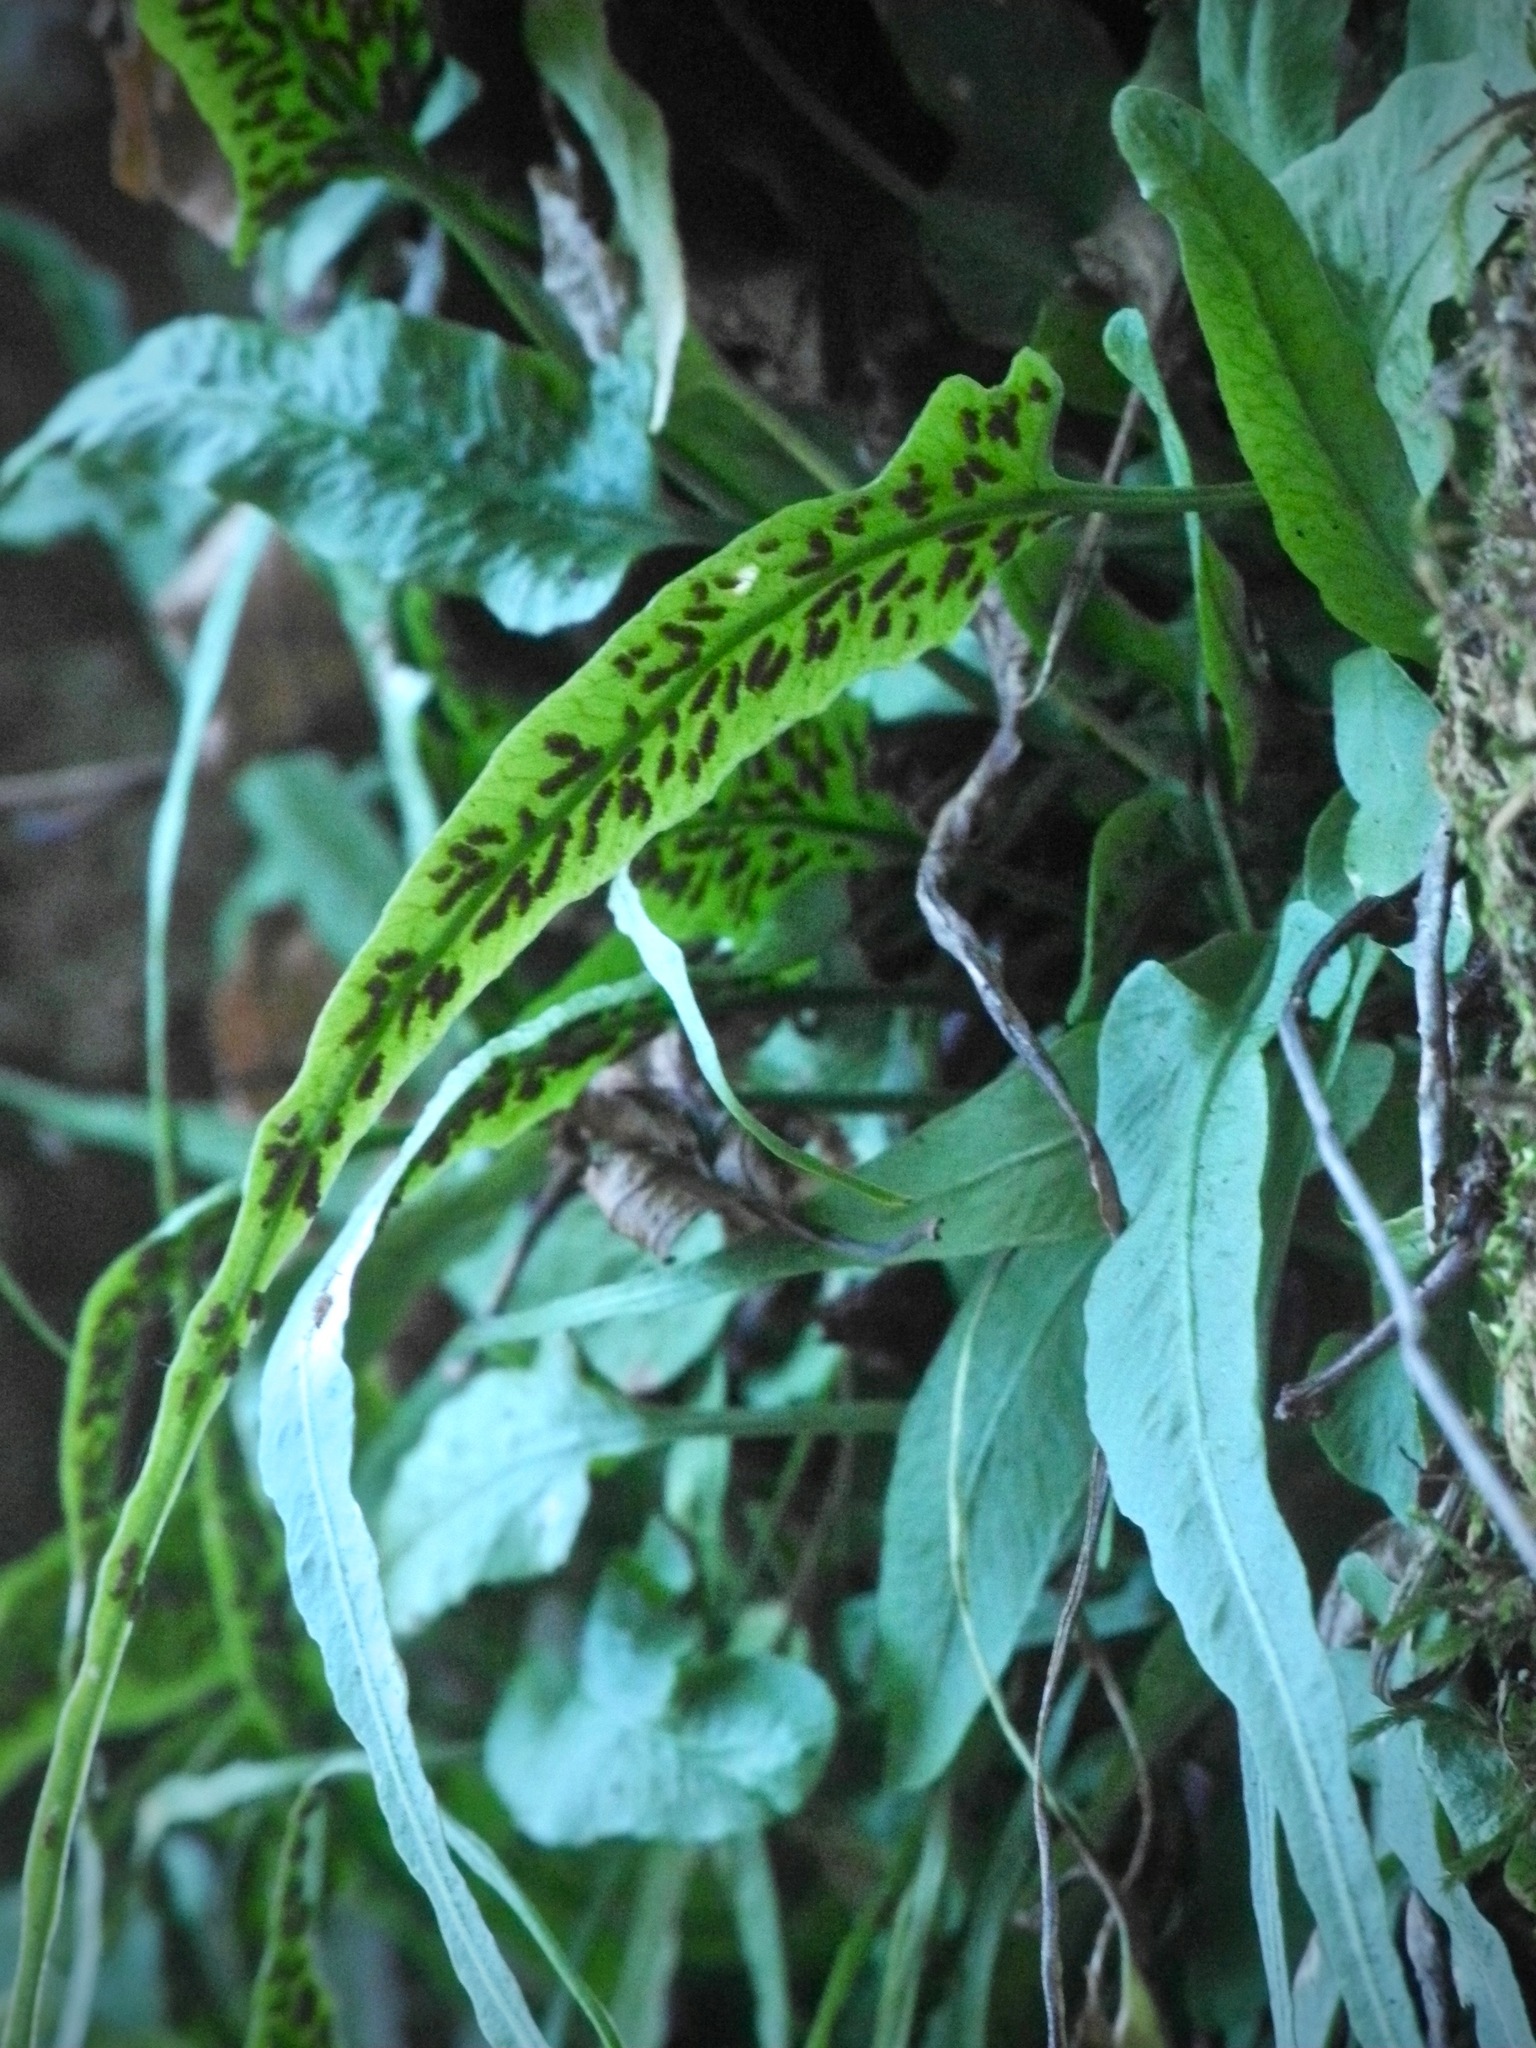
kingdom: Plantae
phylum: Tracheophyta
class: Polypodiopsida
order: Polypodiales
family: Aspleniaceae
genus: Asplenium
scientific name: Asplenium rhizophyllum
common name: Walking fern
